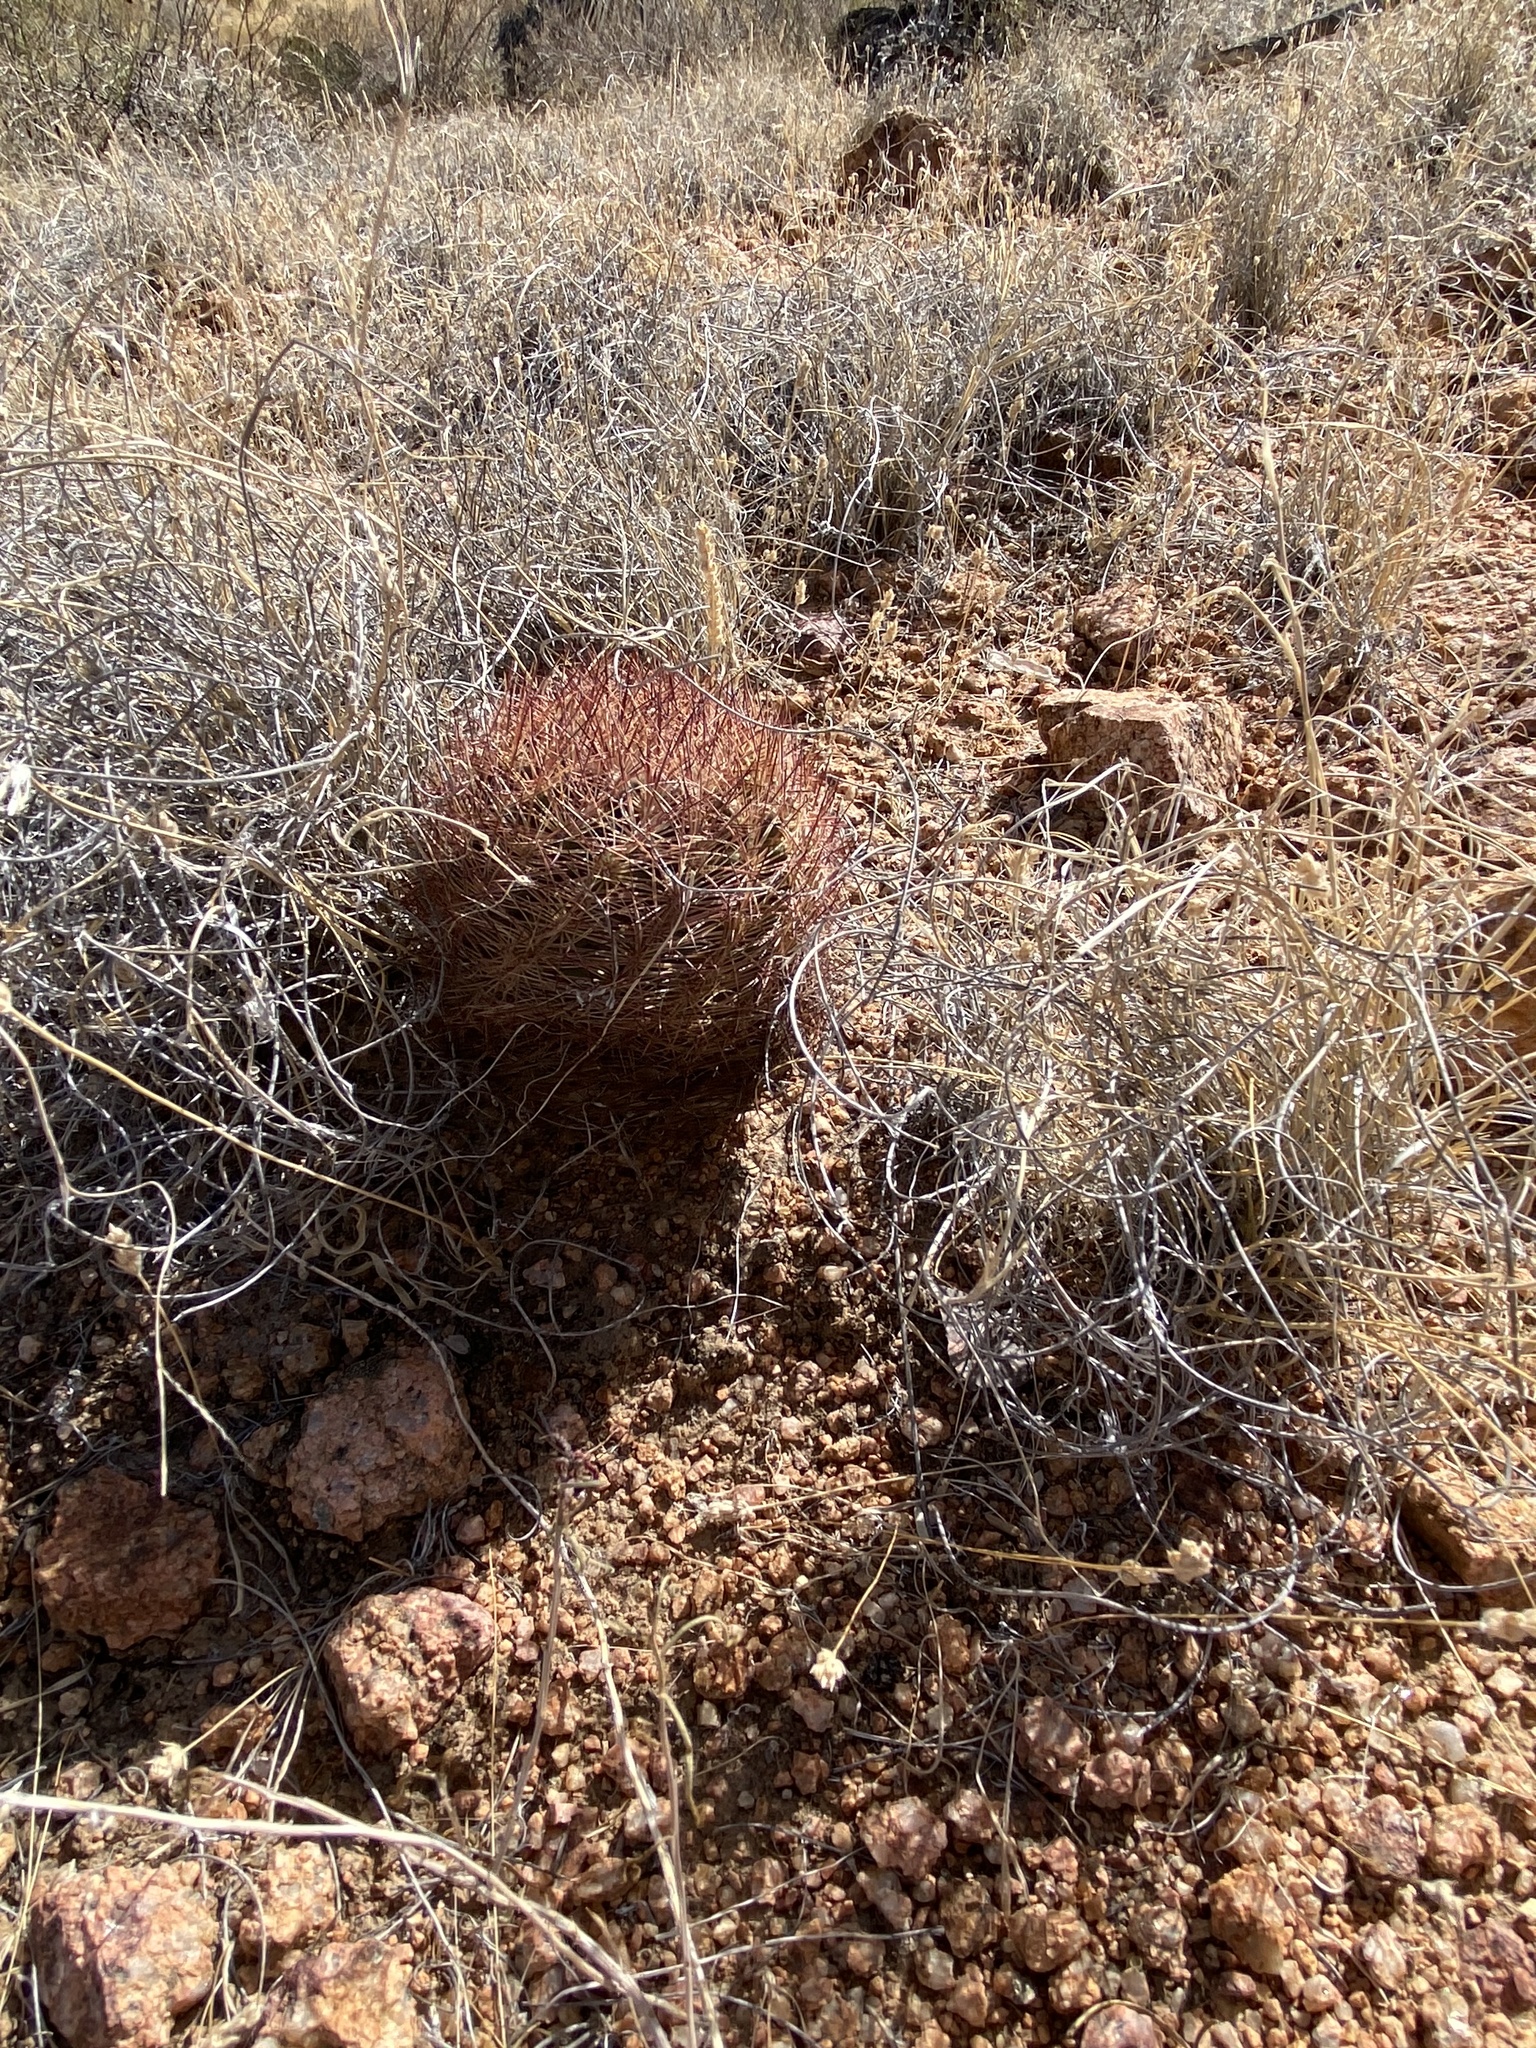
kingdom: Plantae
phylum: Tracheophyta
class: Magnoliopsida
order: Caryophyllales
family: Cactaceae
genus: Sclerocactus
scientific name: Sclerocactus intertextus
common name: White fish-hook cactus
